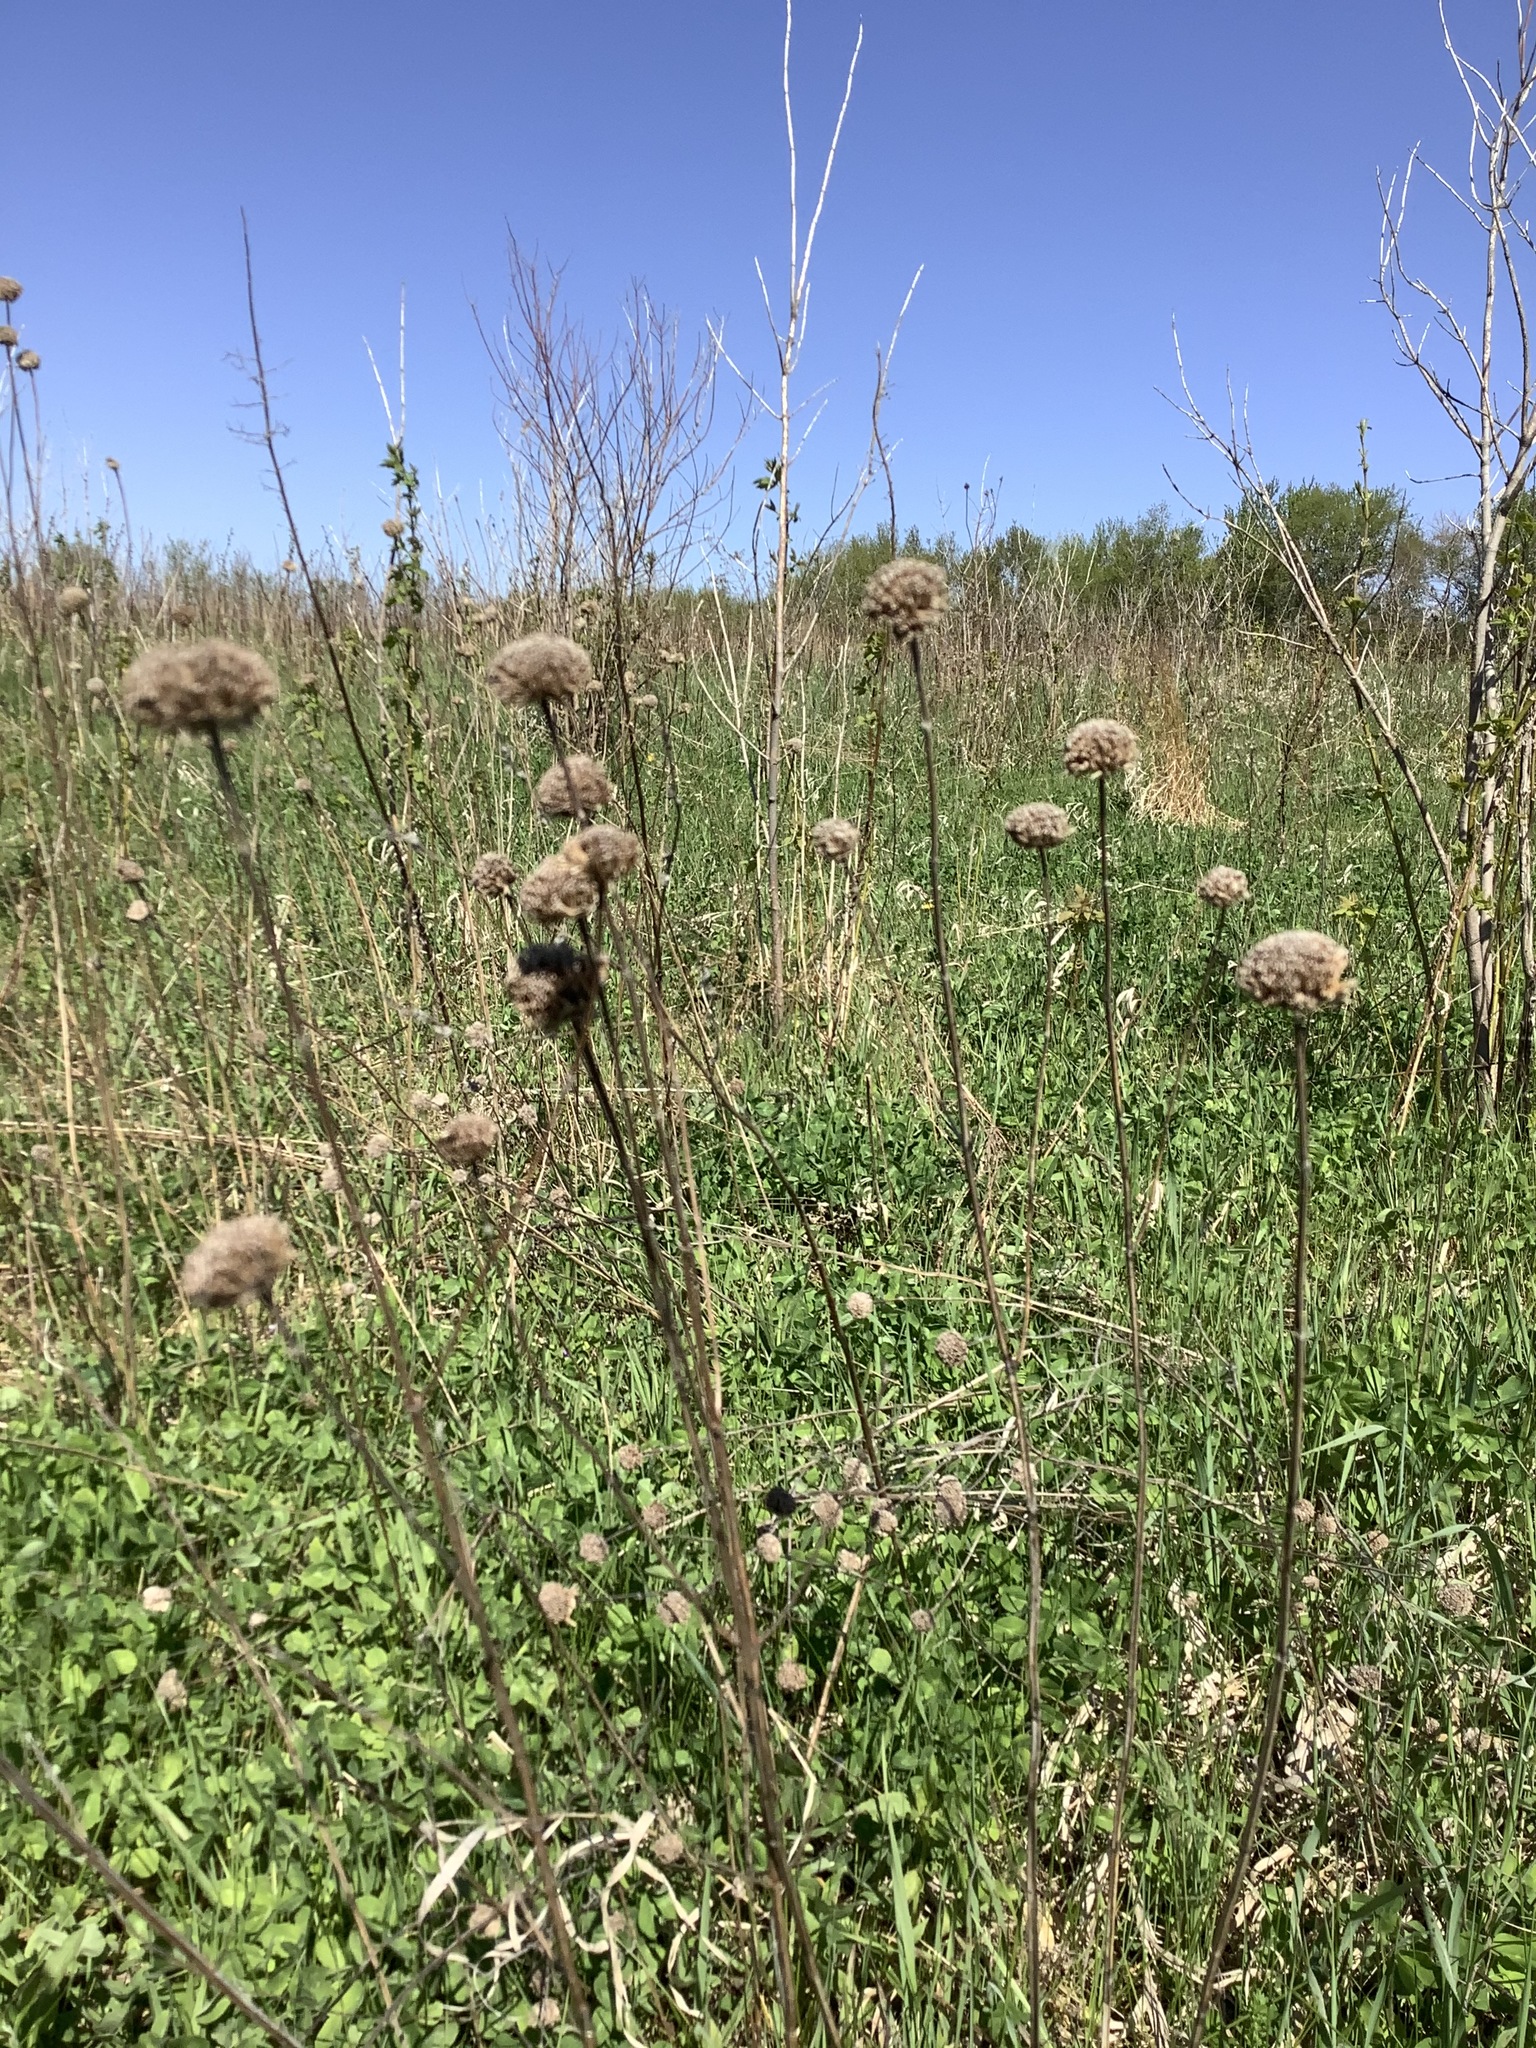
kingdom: Plantae
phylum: Tracheophyta
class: Magnoliopsida
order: Lamiales
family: Lamiaceae
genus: Monarda
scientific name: Monarda fistulosa
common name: Purple beebalm
